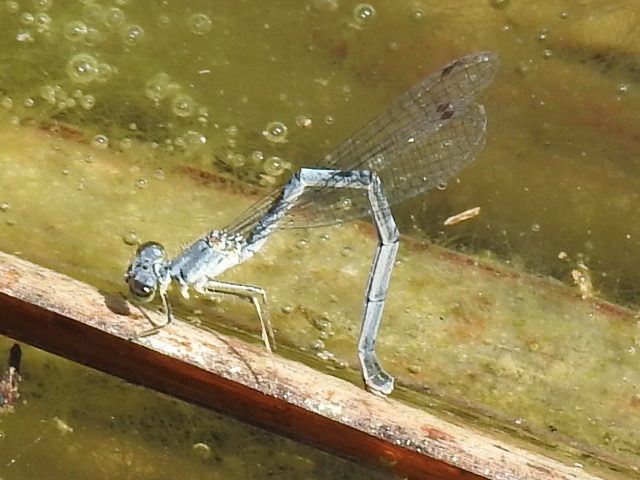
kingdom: Animalia
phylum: Arthropoda
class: Insecta
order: Odonata
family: Coenagrionidae
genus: Ischnura
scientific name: Ischnura posita
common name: Fragile forktail
